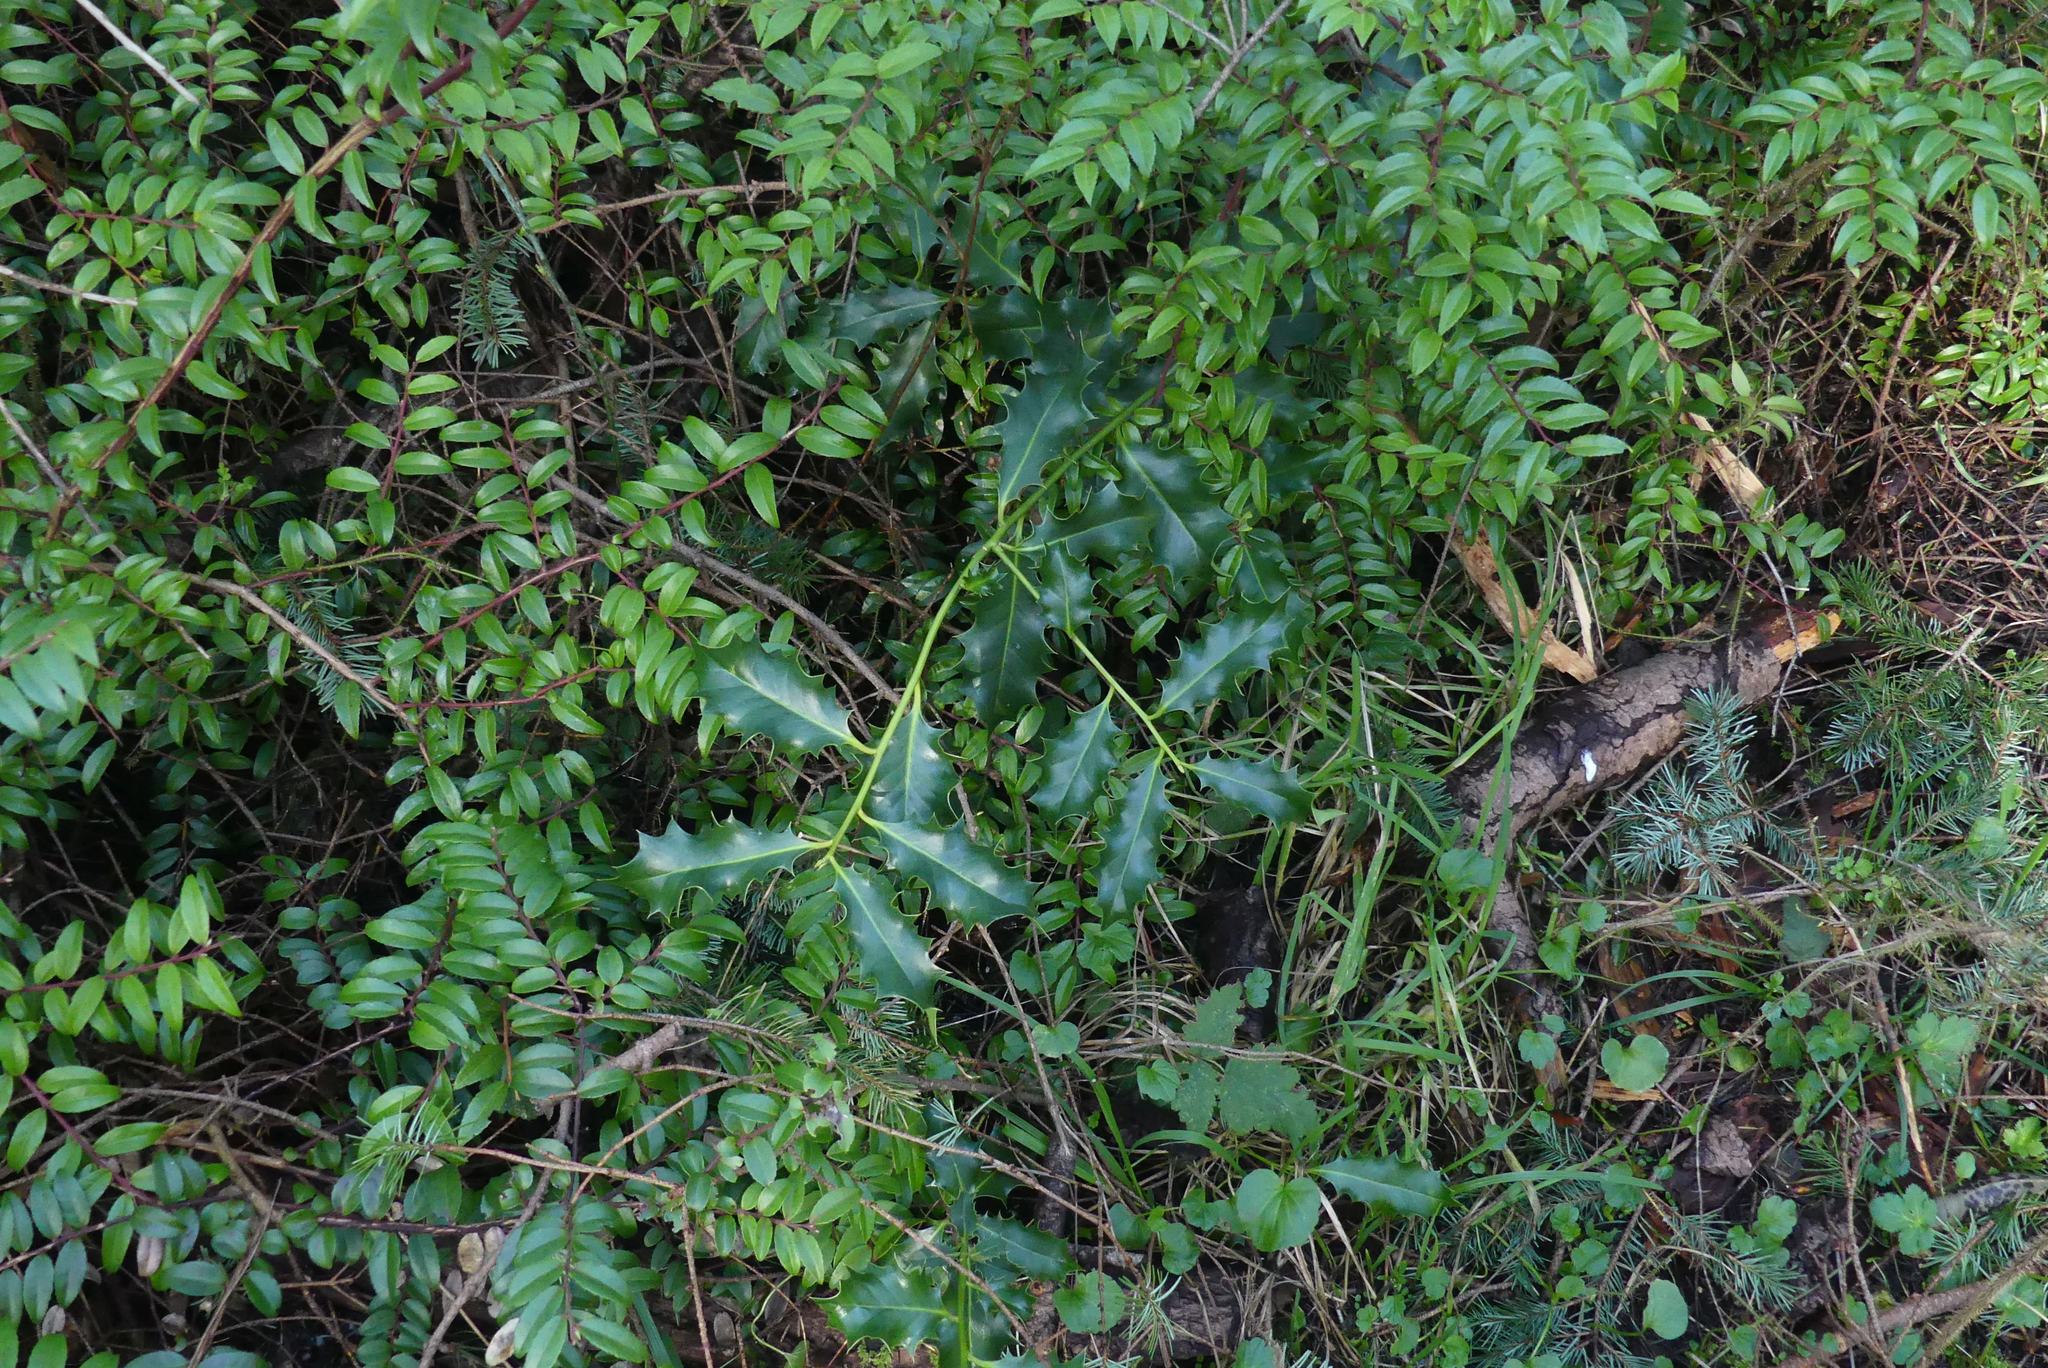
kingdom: Plantae
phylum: Tracheophyta
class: Magnoliopsida
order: Aquifoliales
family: Aquifoliaceae
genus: Ilex
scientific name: Ilex aquifolium
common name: English holly
